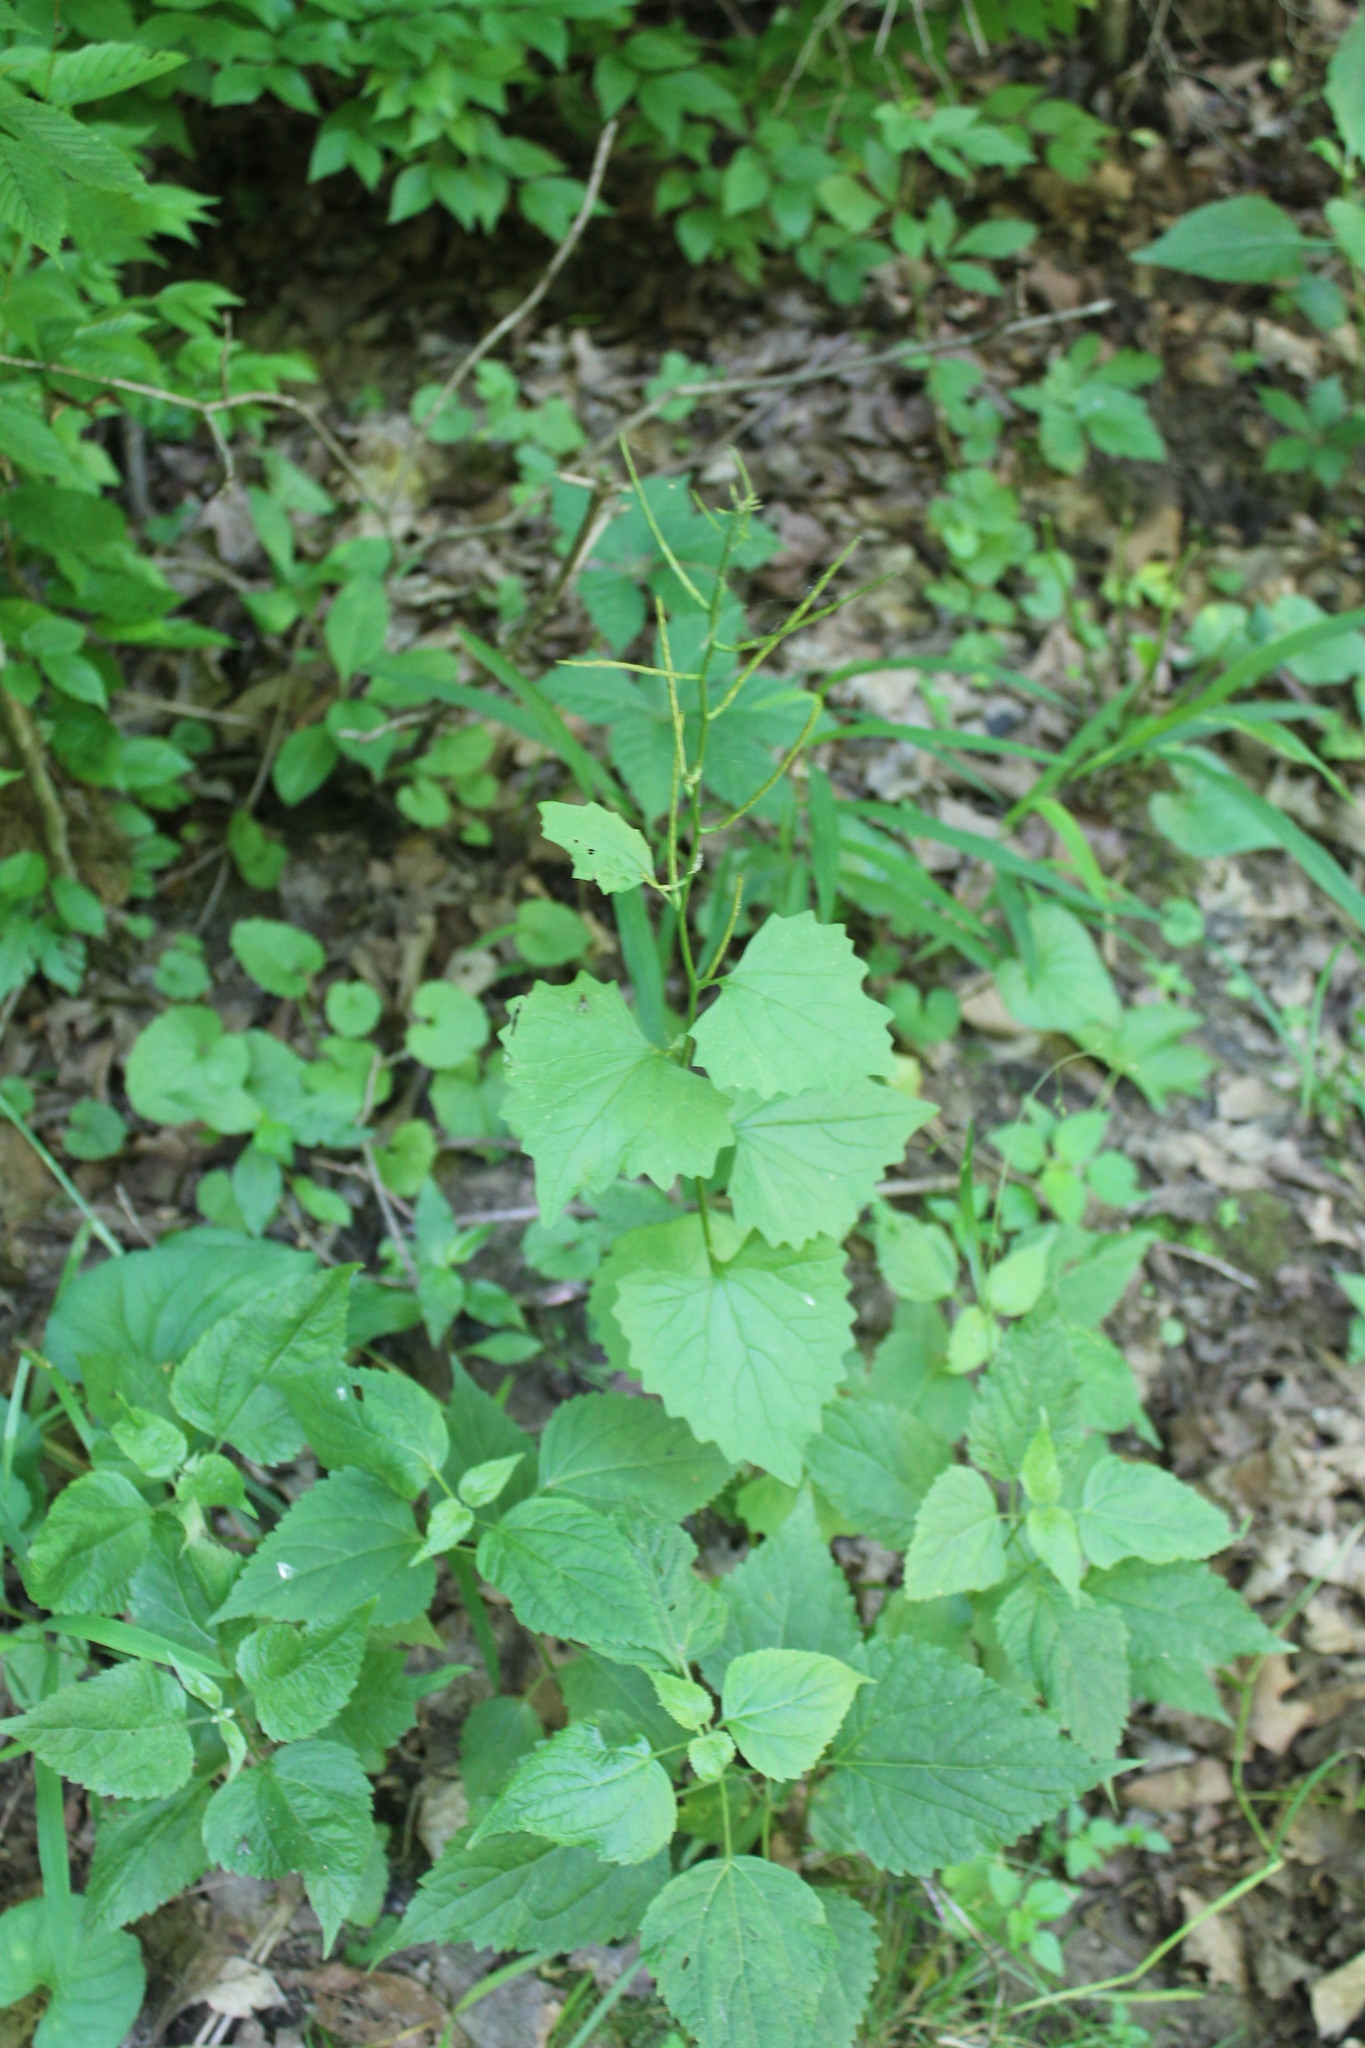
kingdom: Plantae
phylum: Tracheophyta
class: Magnoliopsida
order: Brassicales
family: Brassicaceae
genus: Alliaria
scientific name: Alliaria petiolata
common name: Garlic mustard
